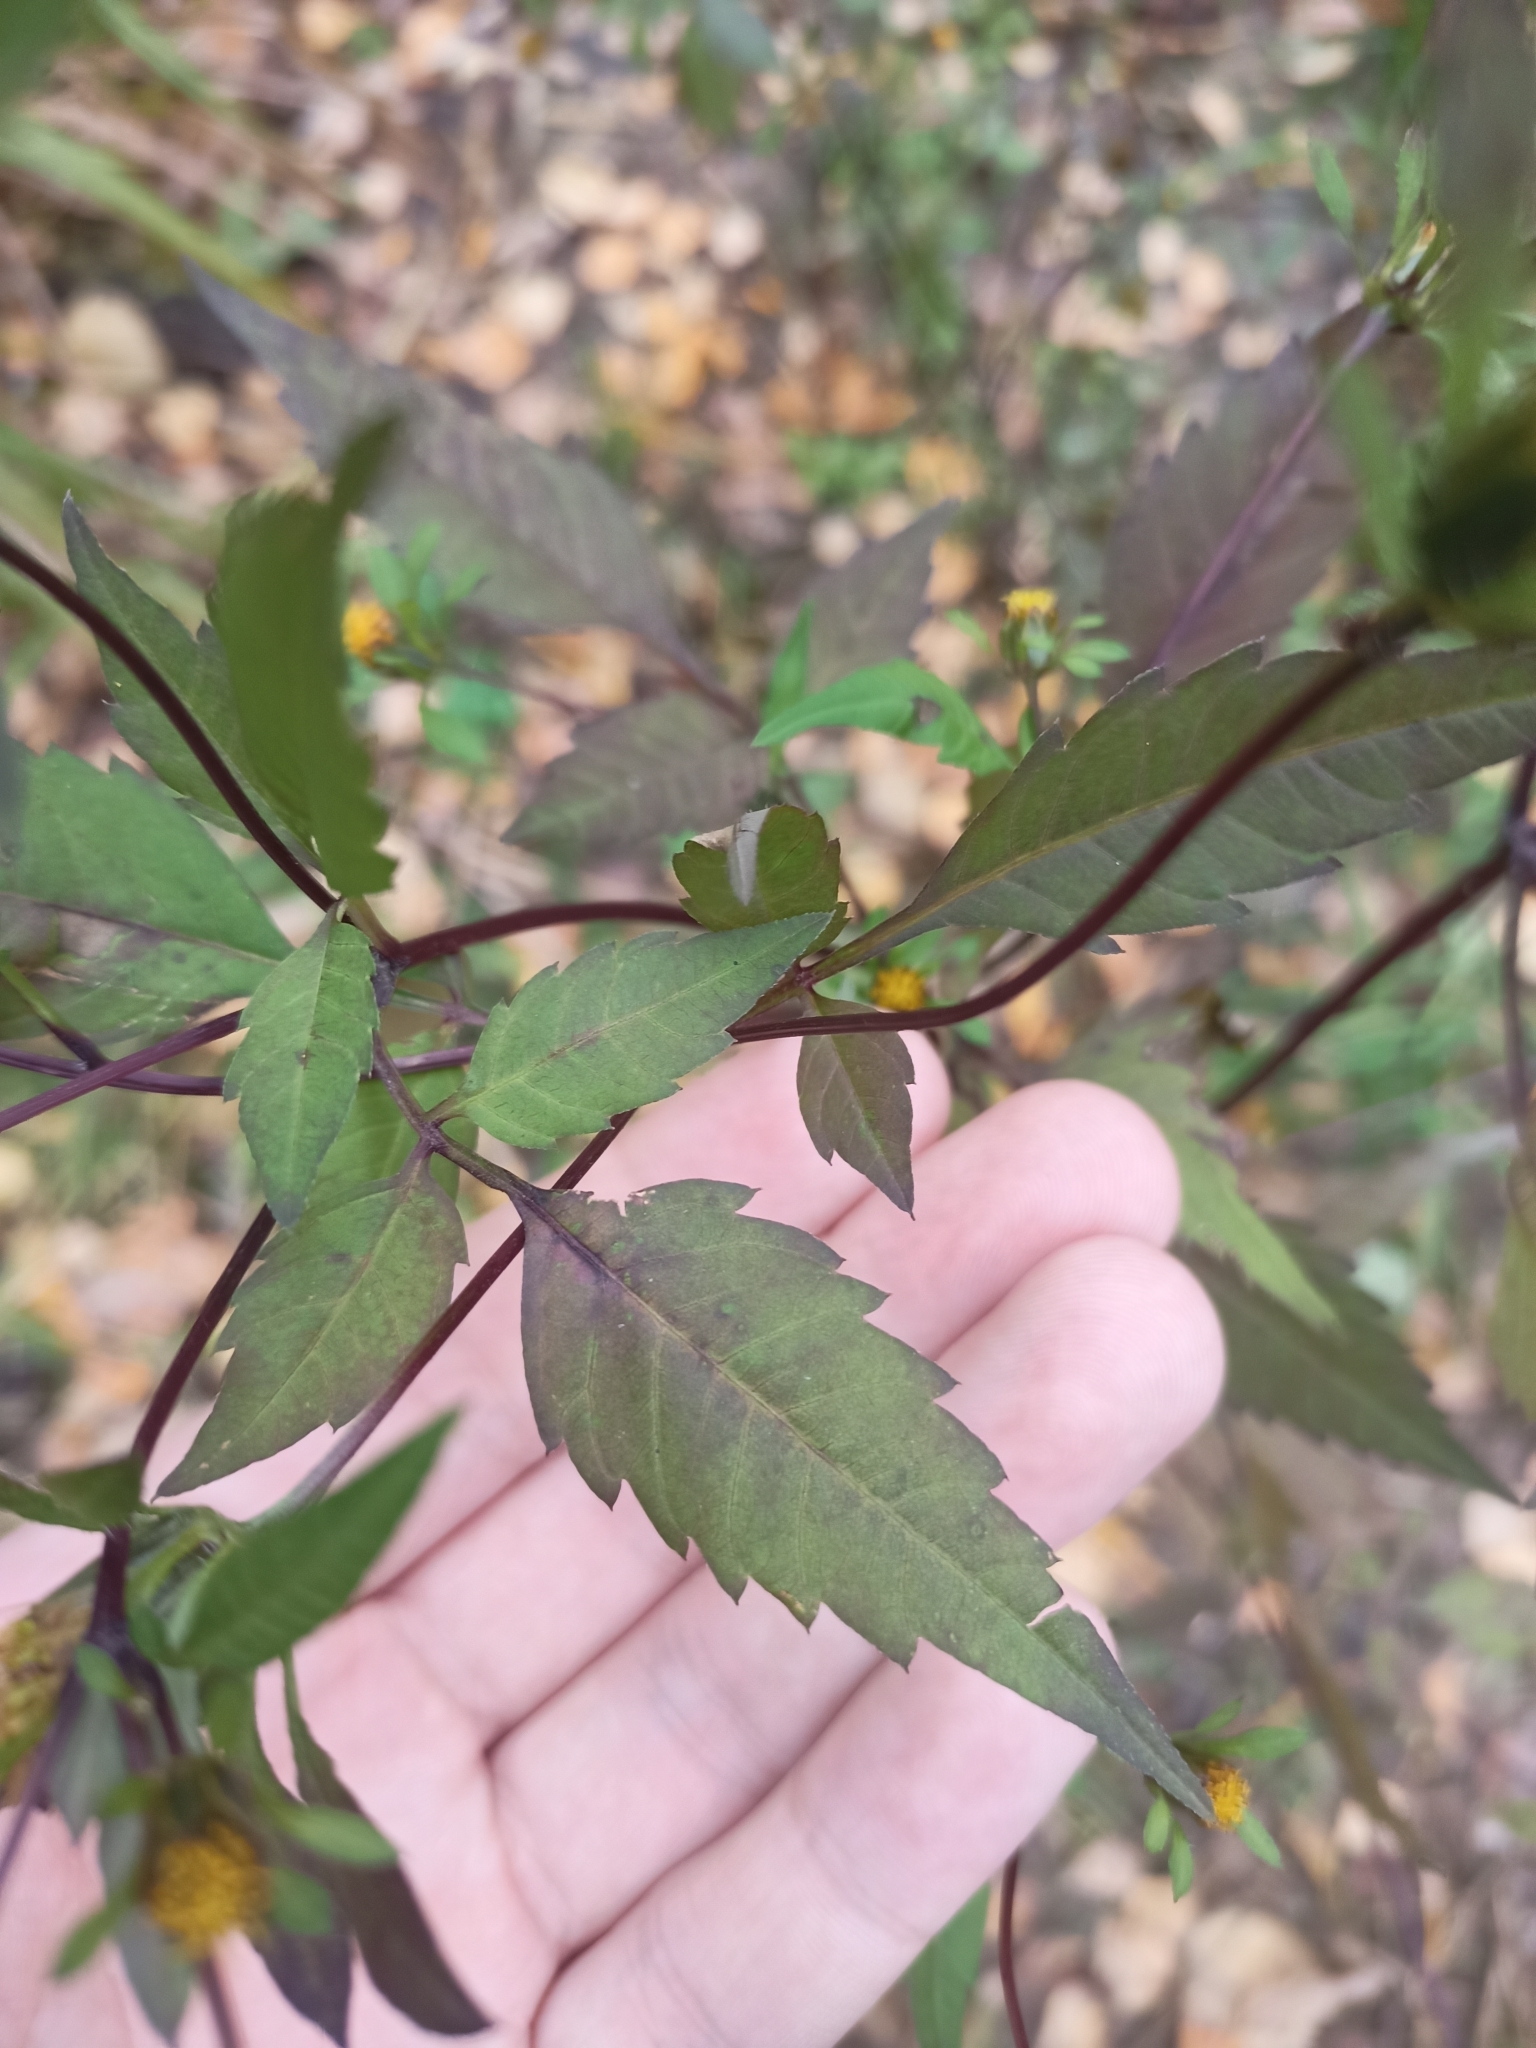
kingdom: Plantae
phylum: Tracheophyta
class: Magnoliopsida
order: Asterales
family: Asteraceae
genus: Bidens
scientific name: Bidens frondosa
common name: Beggarticks
